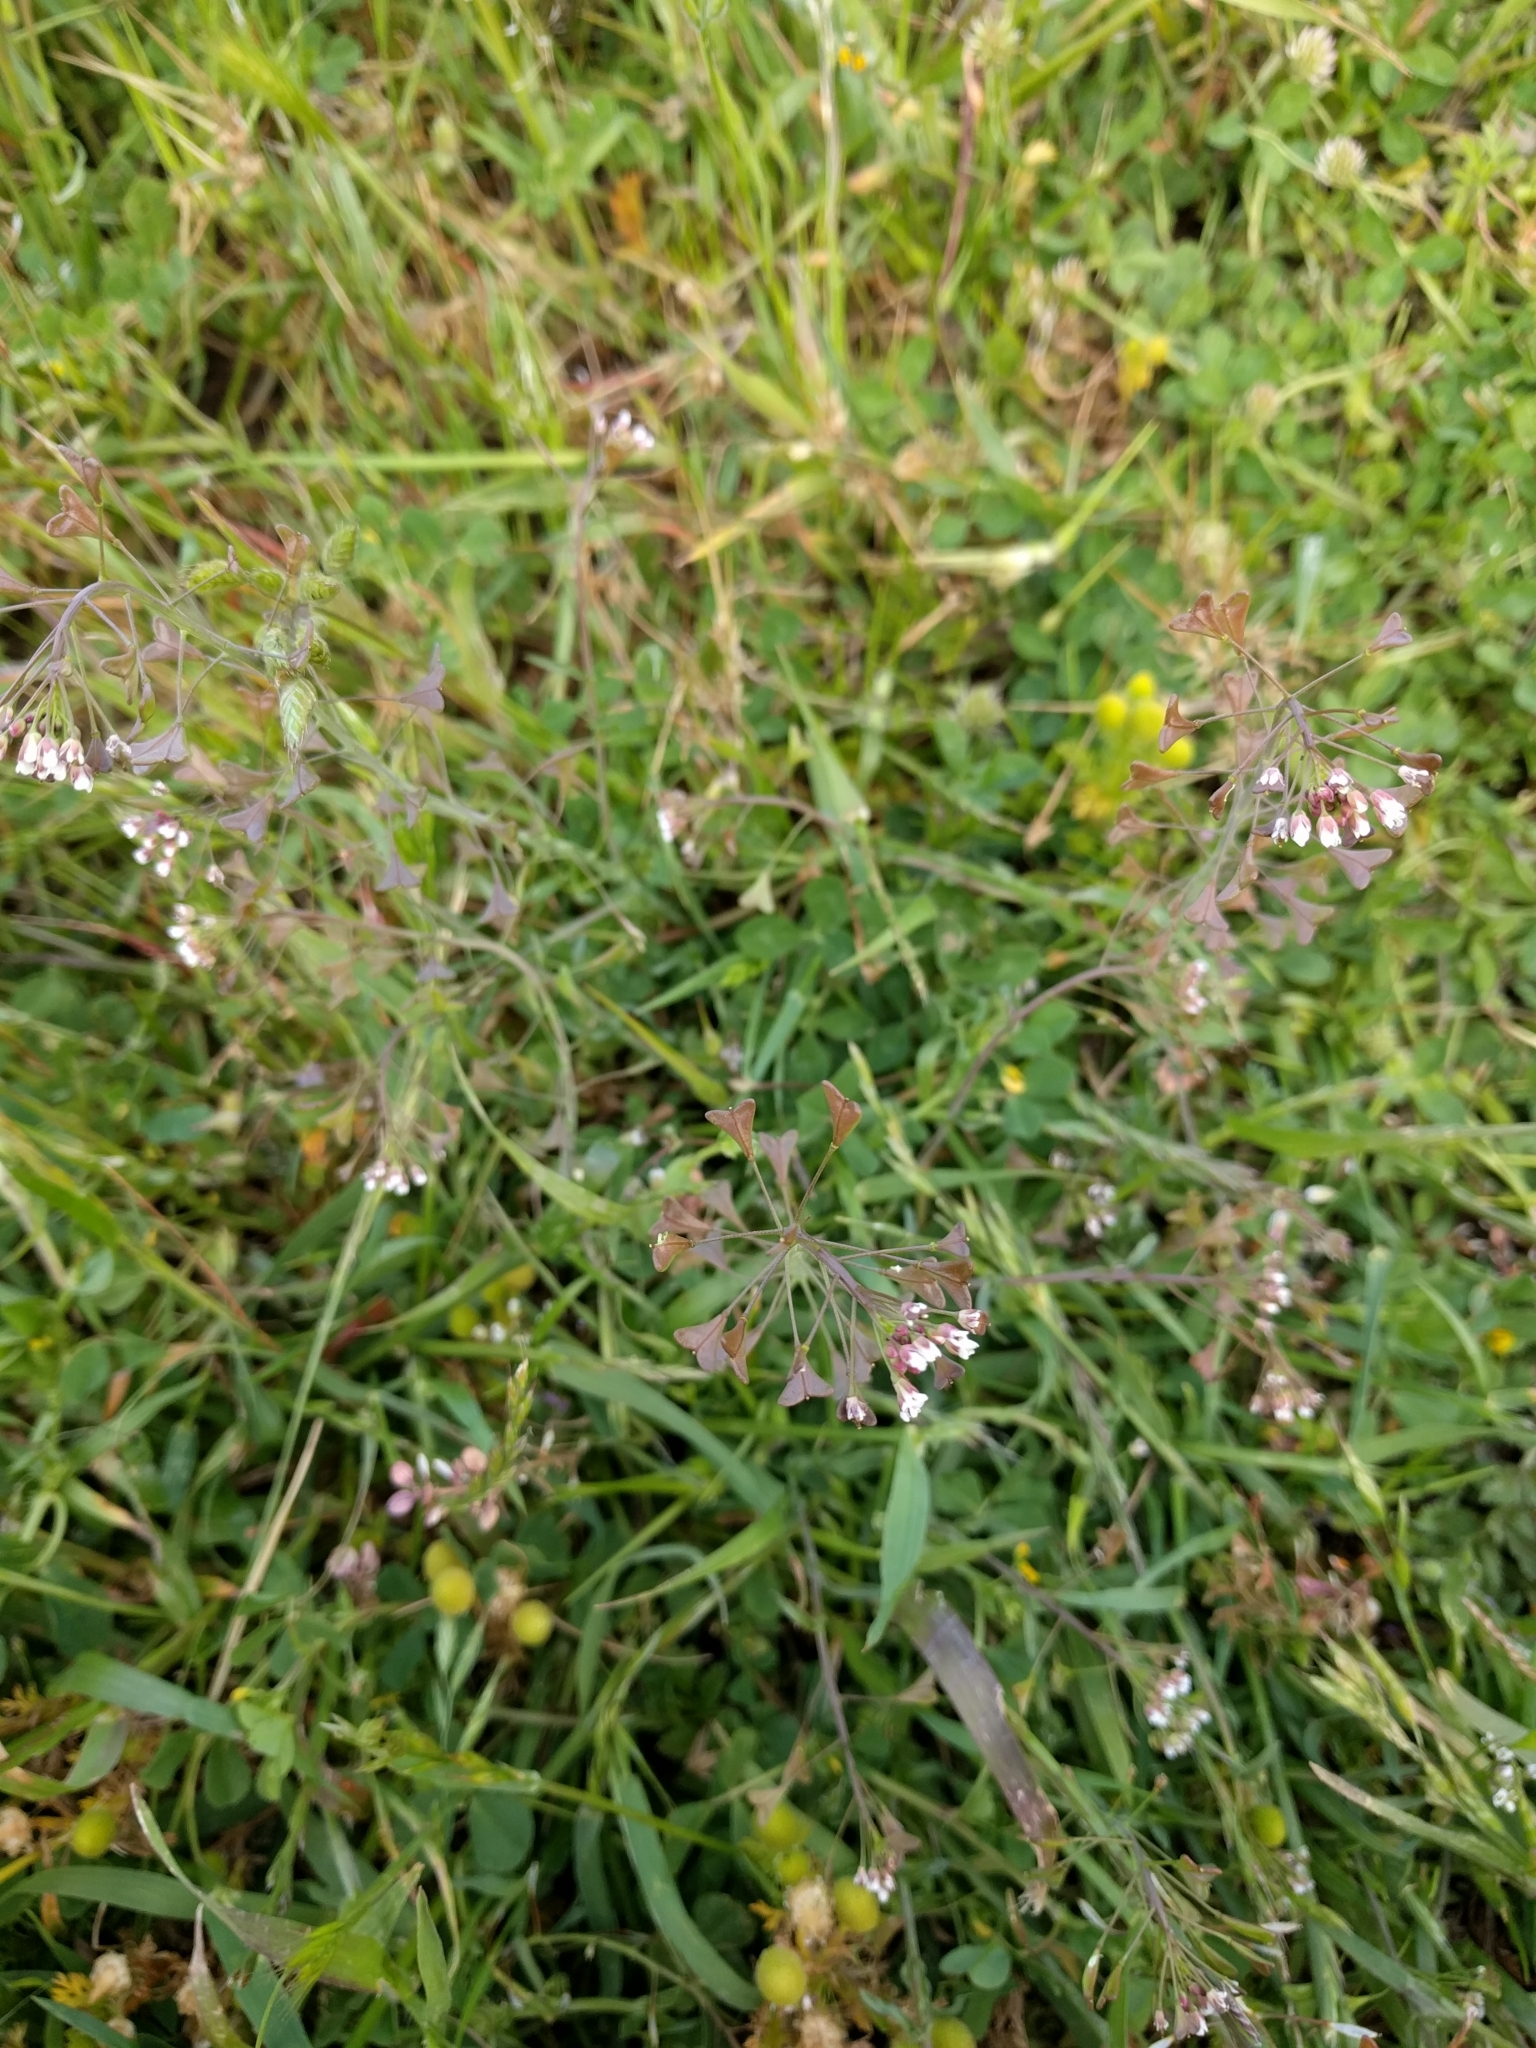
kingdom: Plantae
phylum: Tracheophyta
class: Magnoliopsida
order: Brassicales
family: Brassicaceae
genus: Capsella
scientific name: Capsella bursa-pastoris
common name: Shepherd's purse
